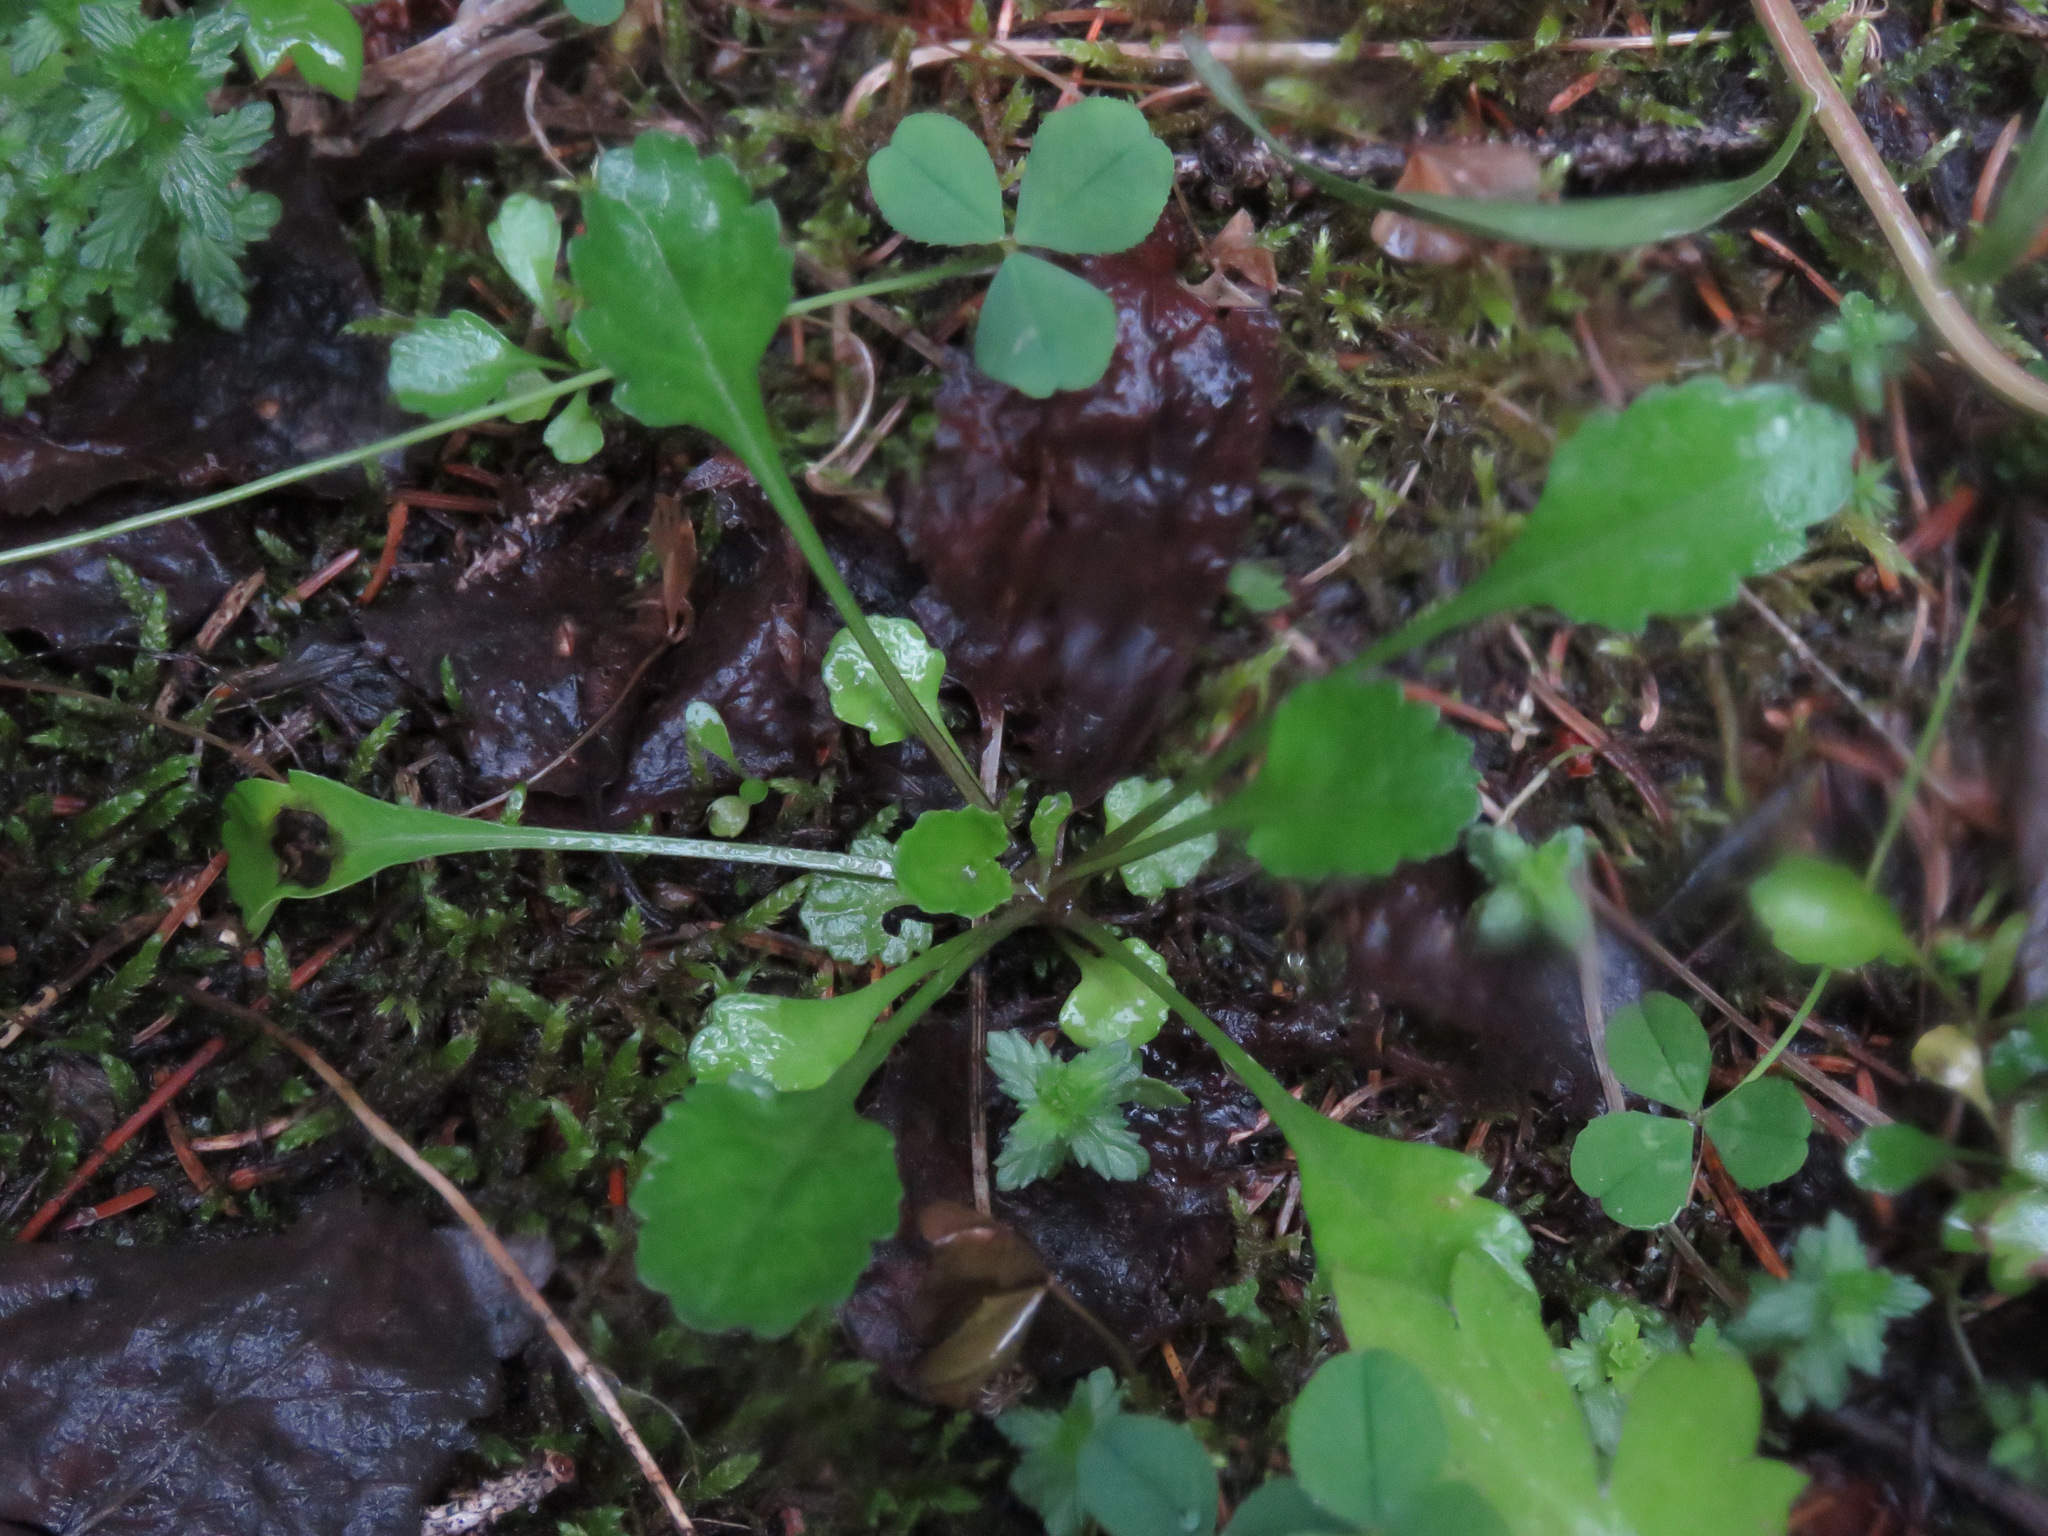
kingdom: Plantae
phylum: Tracheophyta
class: Magnoliopsida
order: Asterales
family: Asteraceae
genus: Leucanthemum
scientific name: Leucanthemum vulgare
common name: Oxeye daisy
